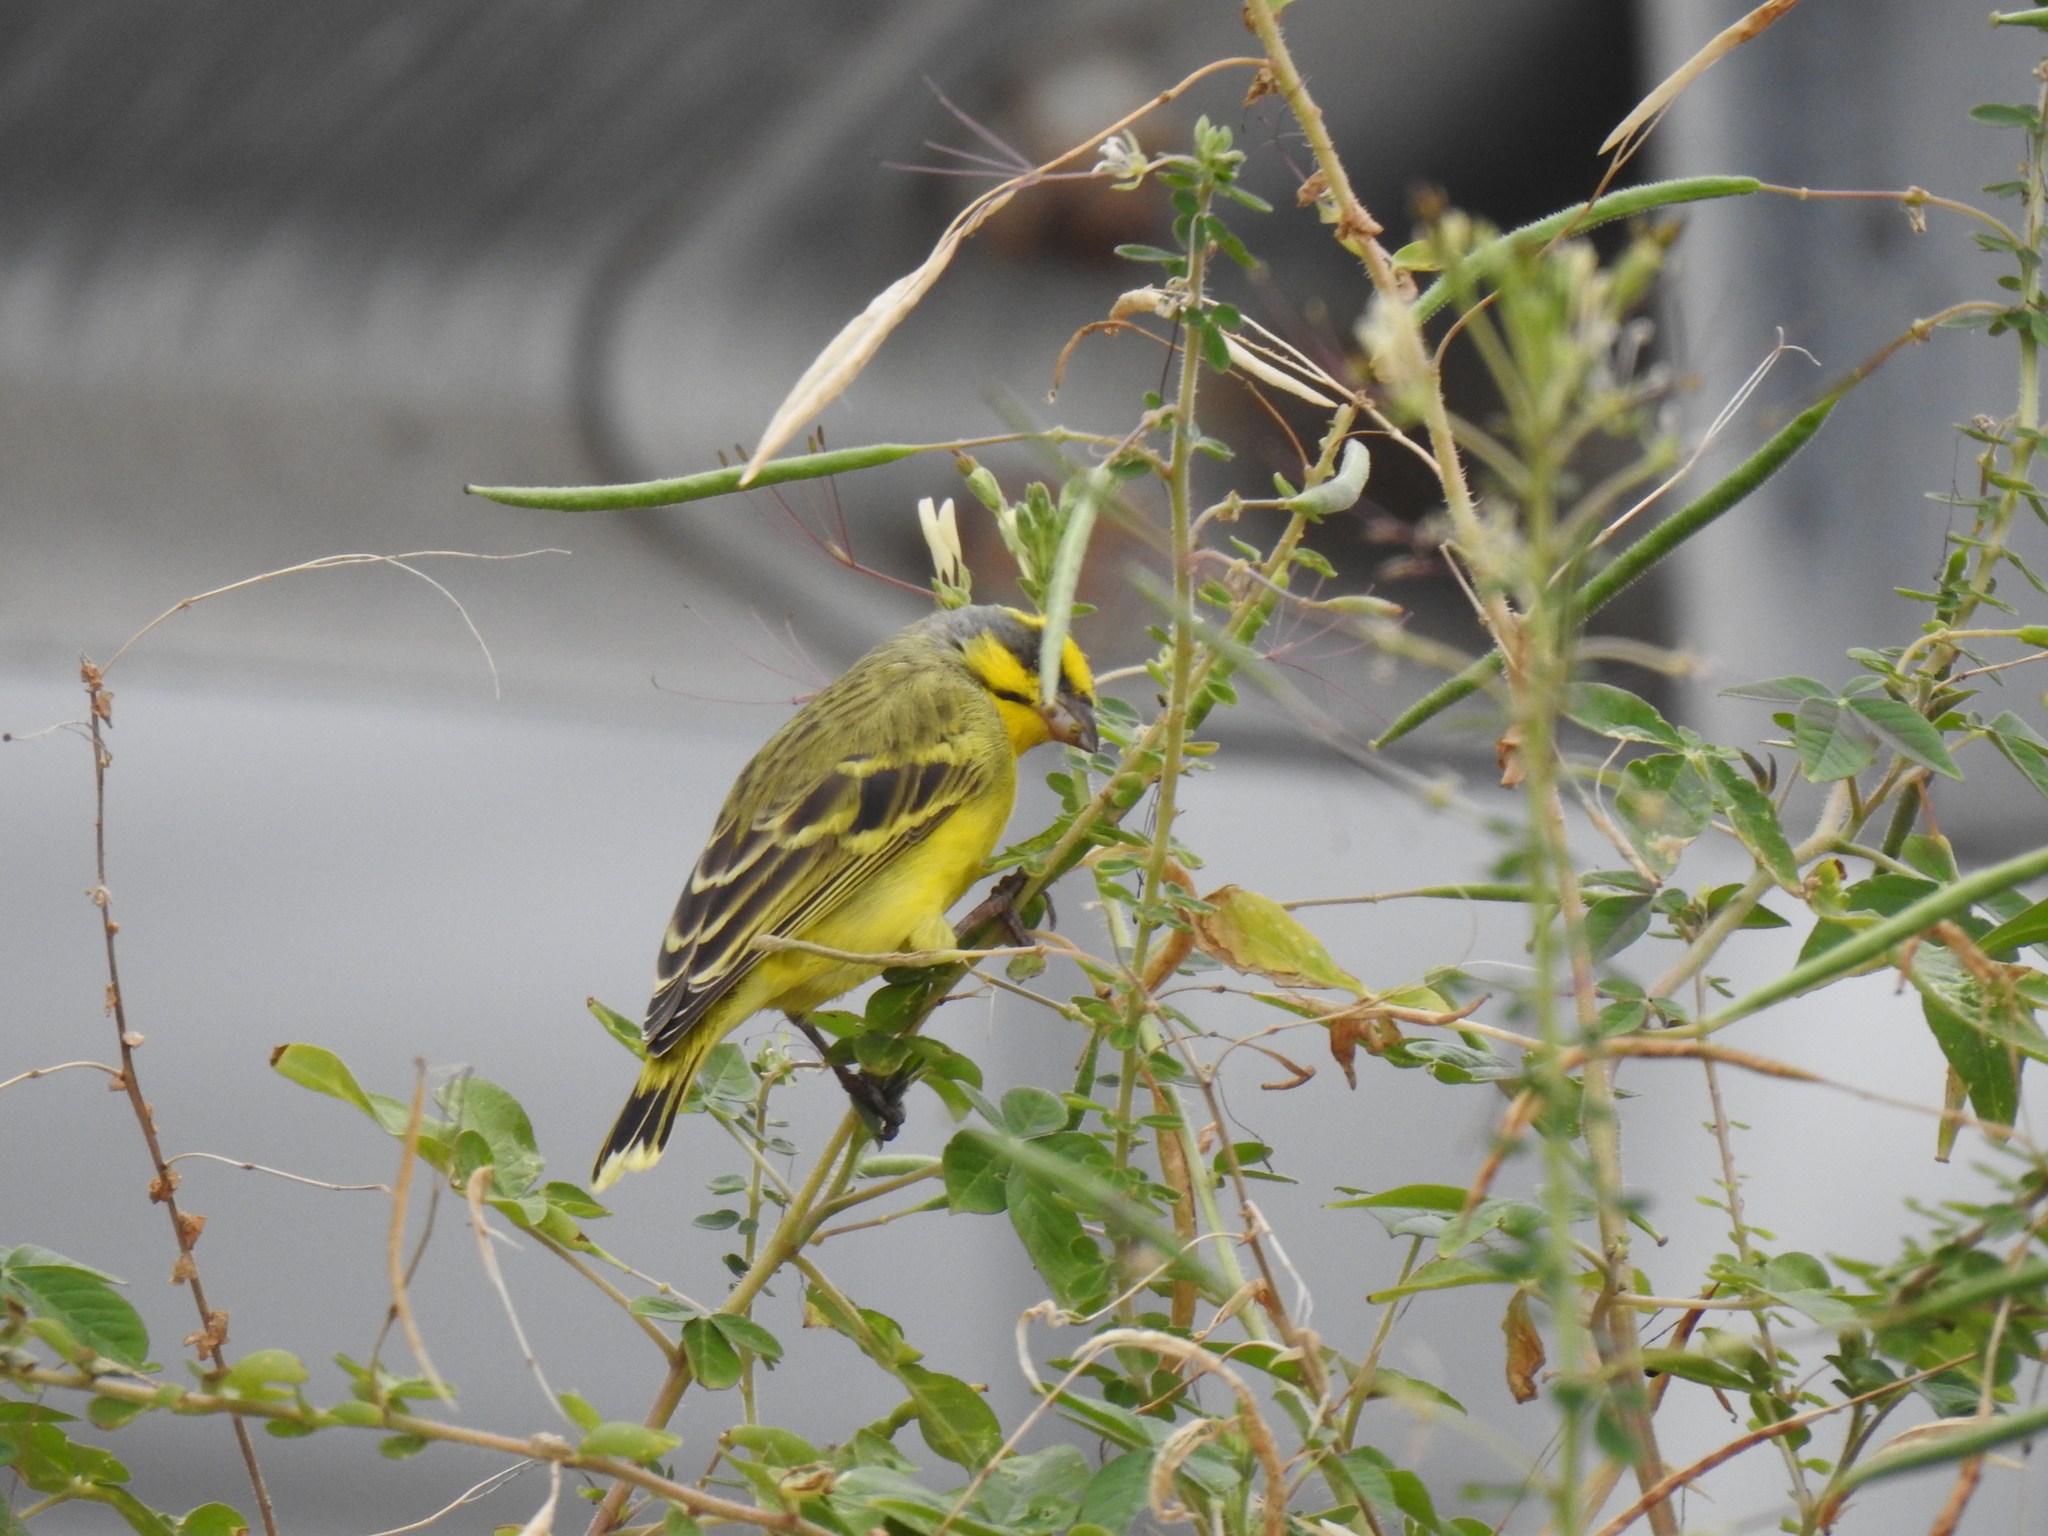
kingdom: Animalia
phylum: Chordata
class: Aves
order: Passeriformes
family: Fringillidae
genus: Crithagra
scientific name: Crithagra mozambica
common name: Yellow-fronted canary
